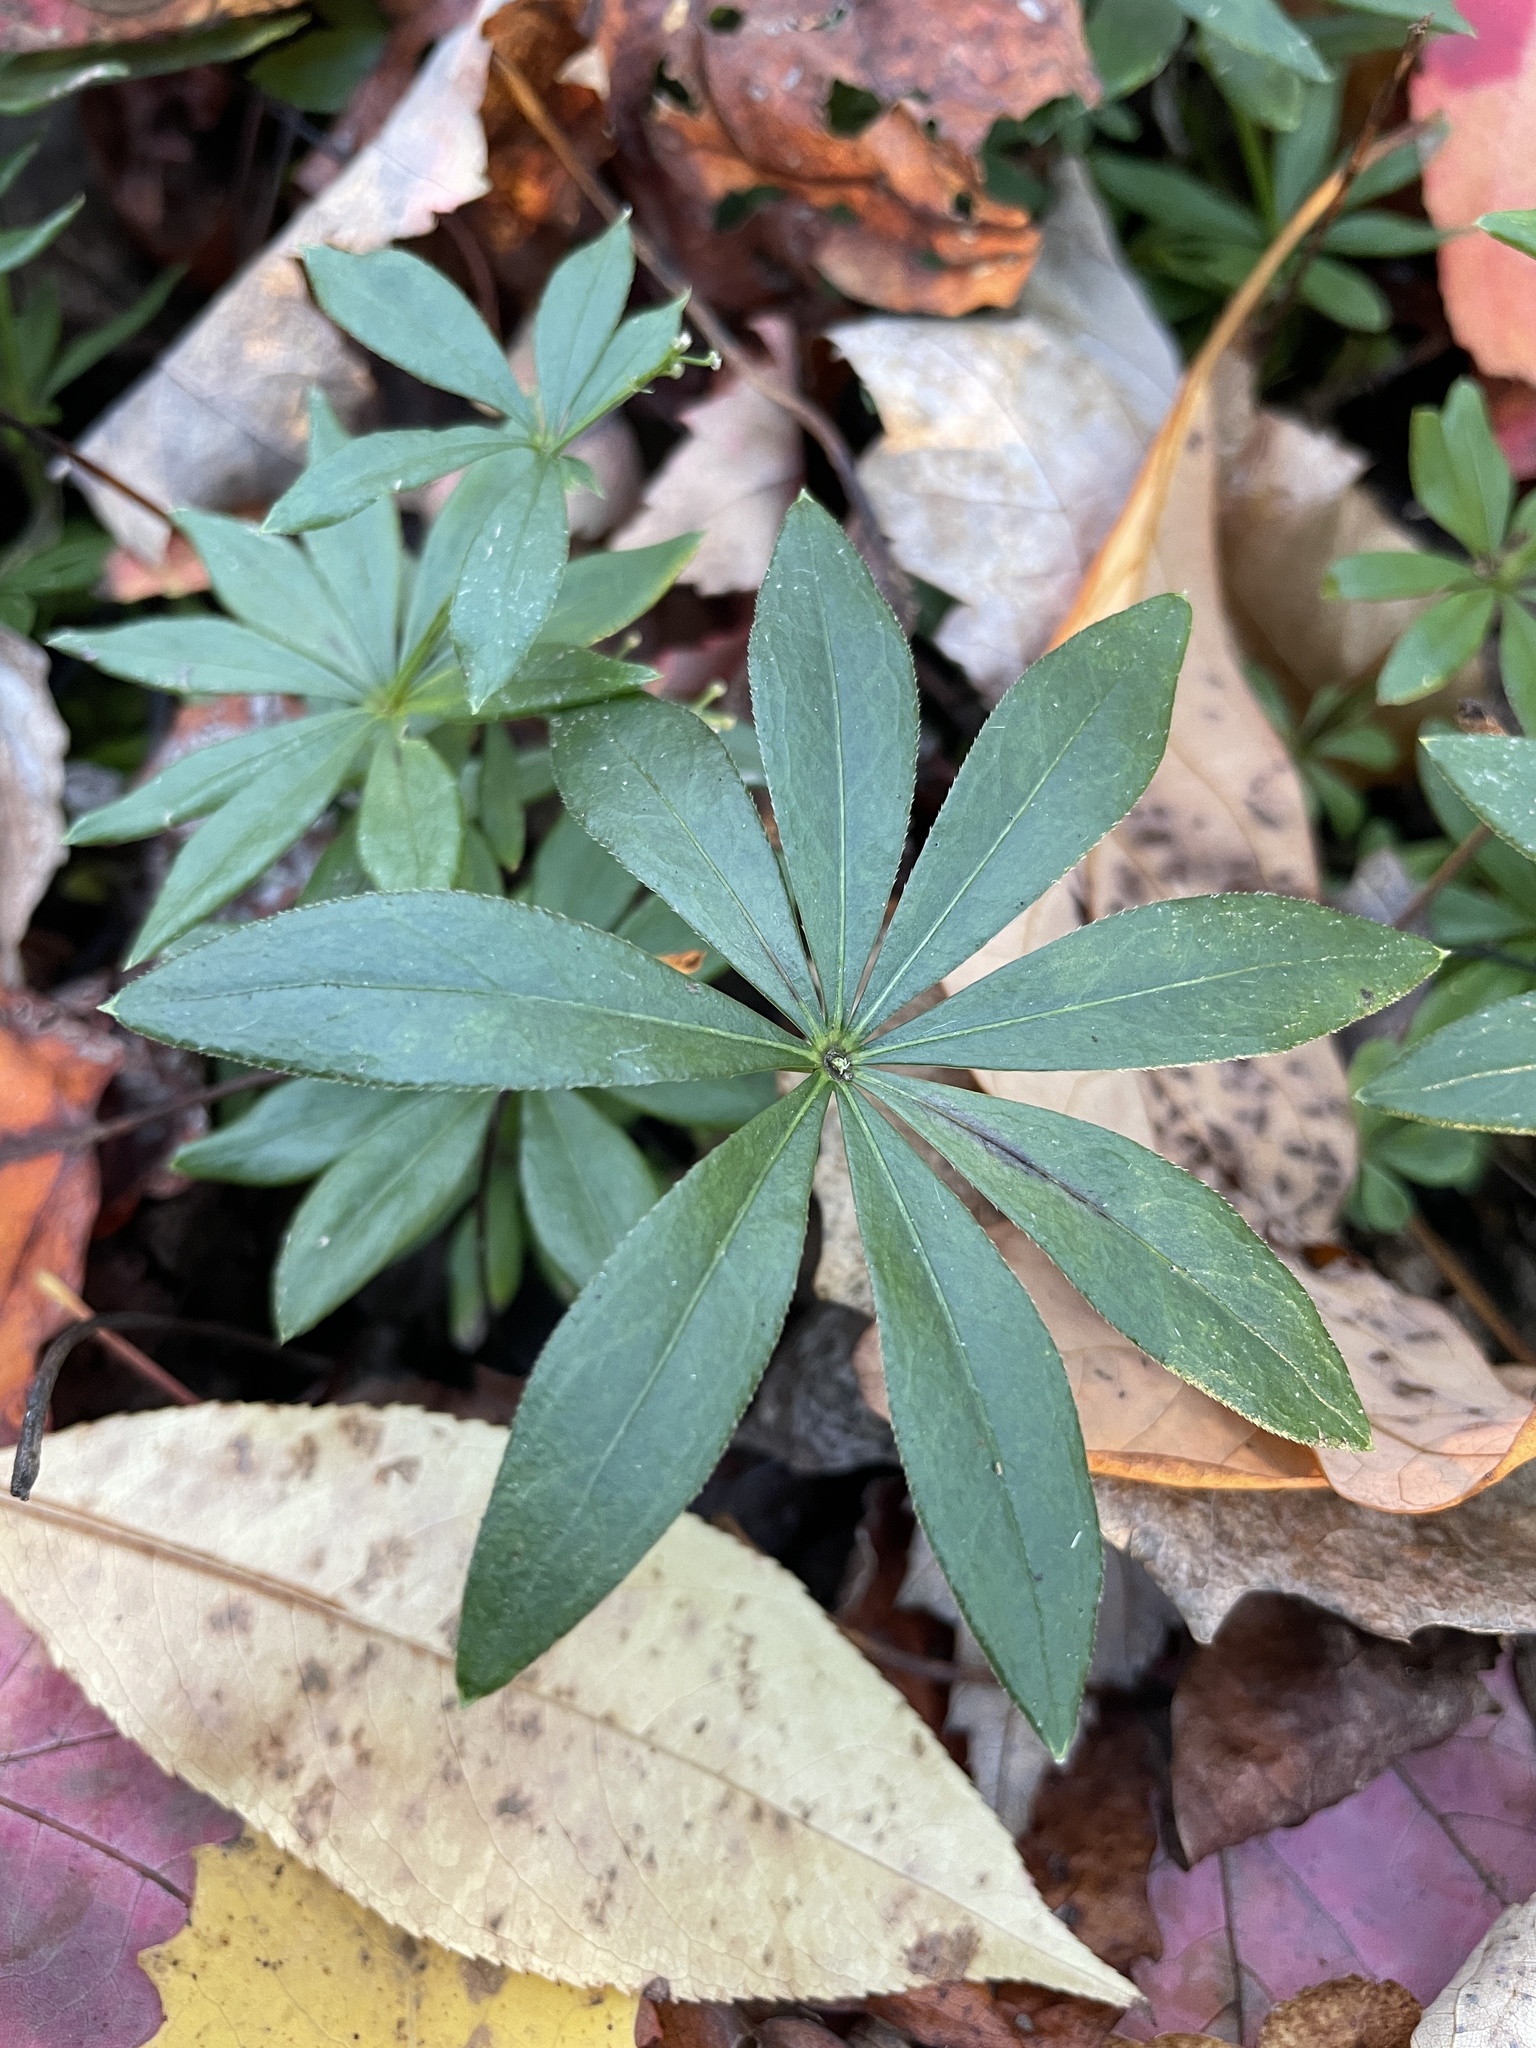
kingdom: Plantae
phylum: Tracheophyta
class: Magnoliopsida
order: Gentianales
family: Rubiaceae
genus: Galium
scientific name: Galium odoratum
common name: Sweet woodruff
